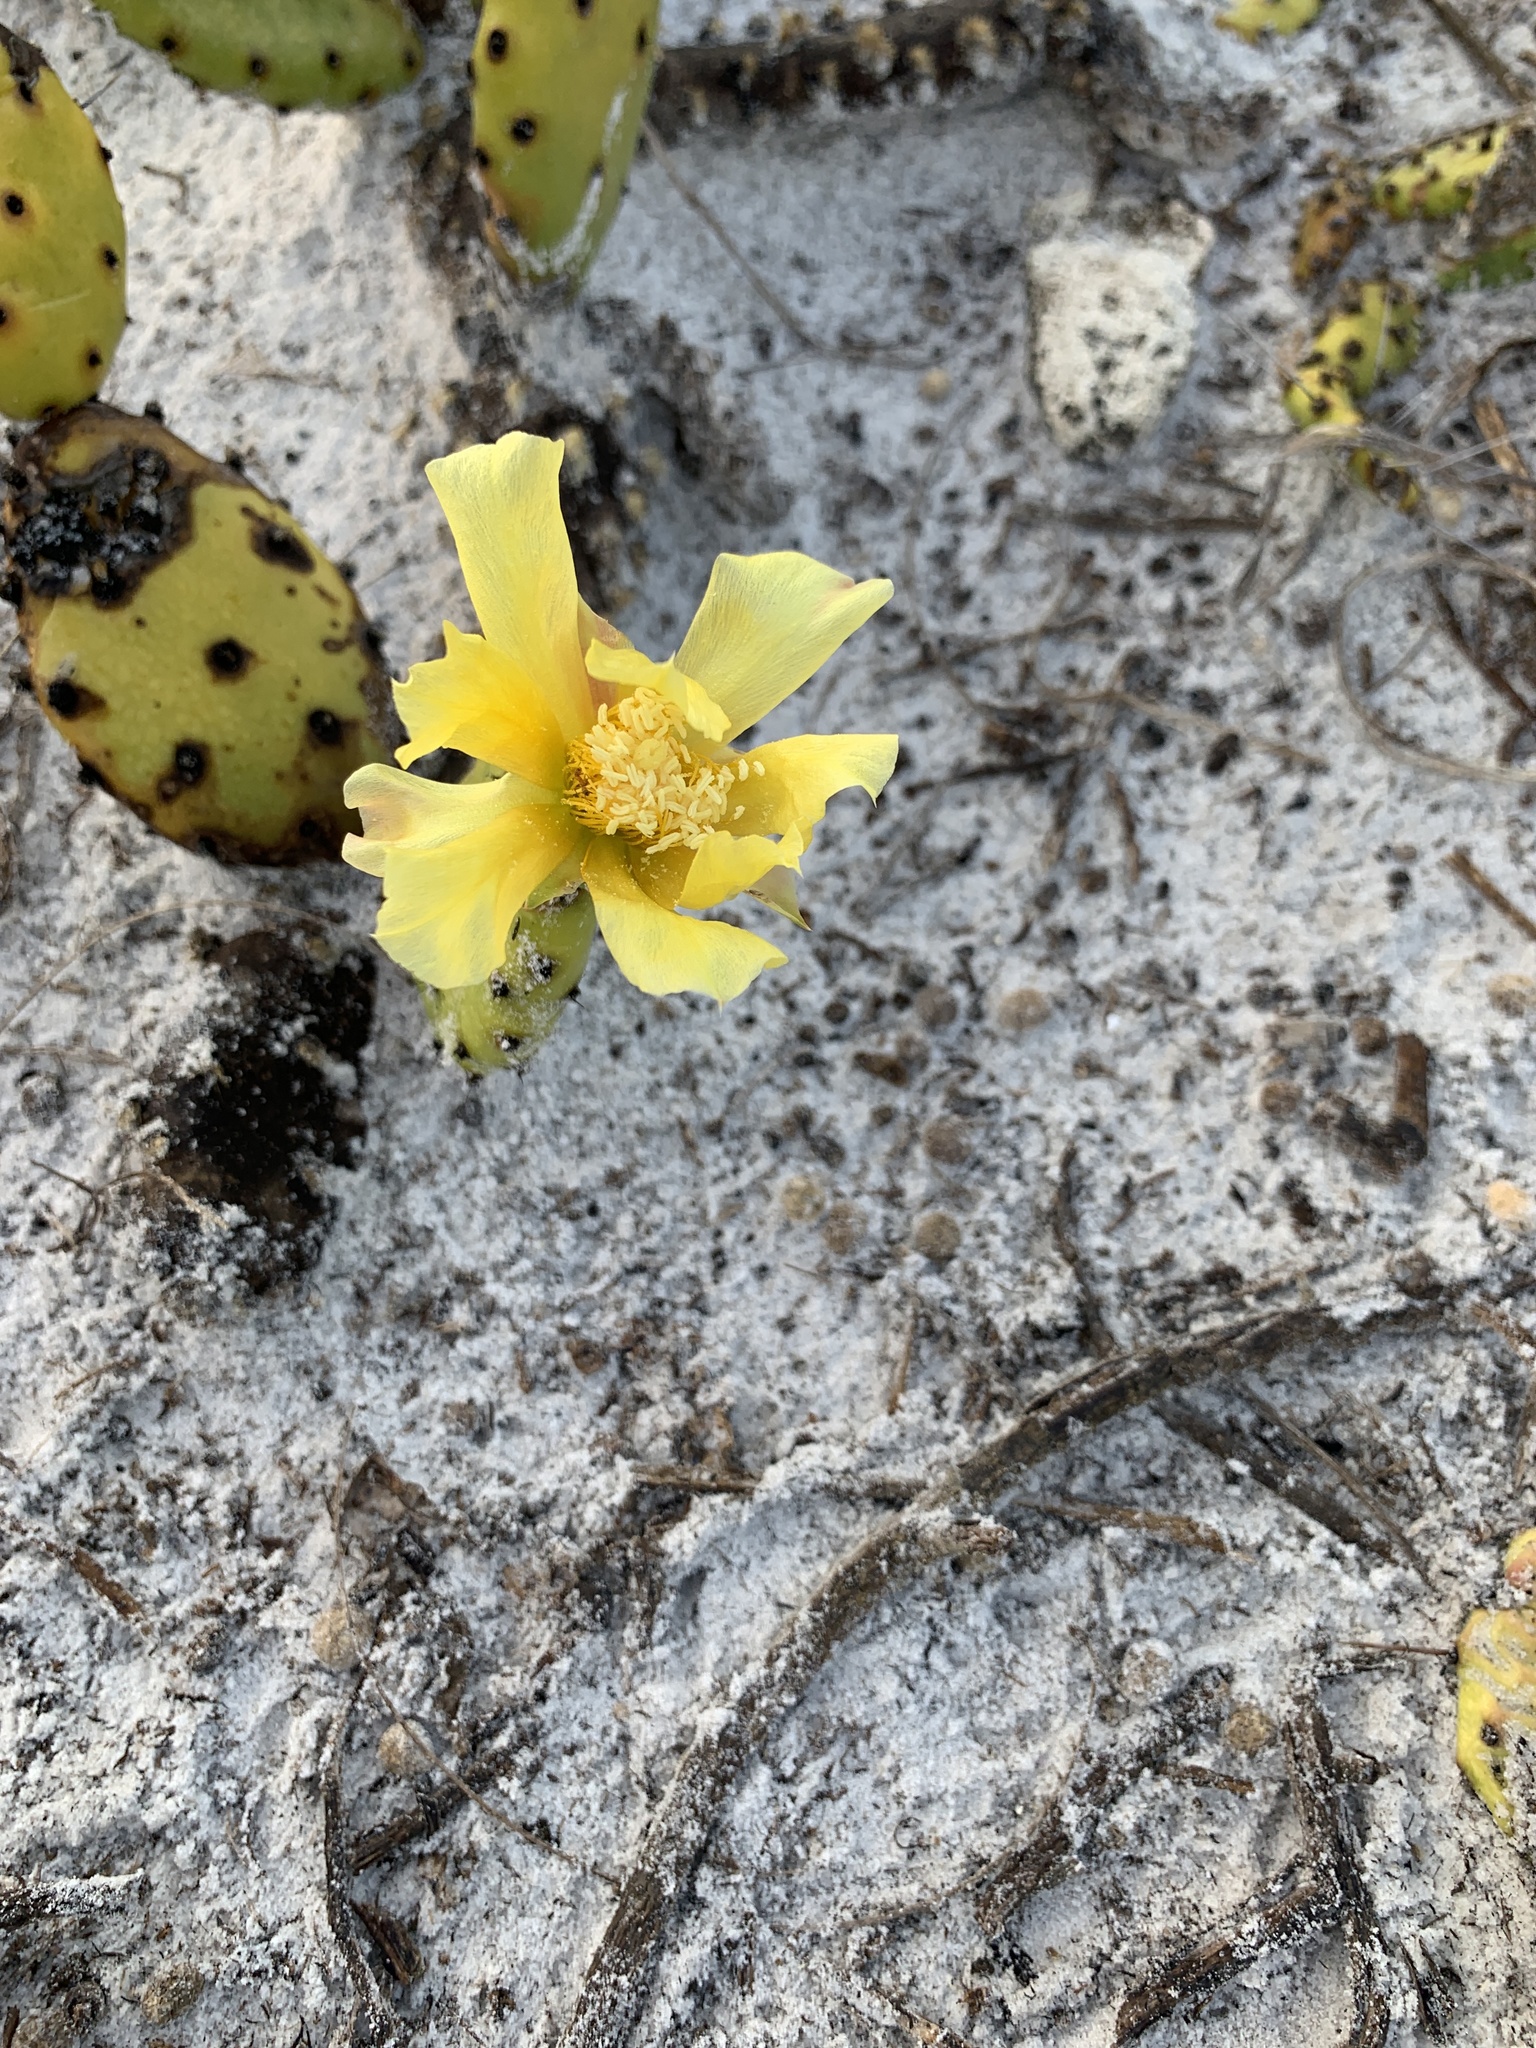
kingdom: Plantae
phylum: Tracheophyta
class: Magnoliopsida
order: Caryophyllales
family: Cactaceae
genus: Opuntia
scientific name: Opuntia humifusa
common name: Eastern prickly-pear
